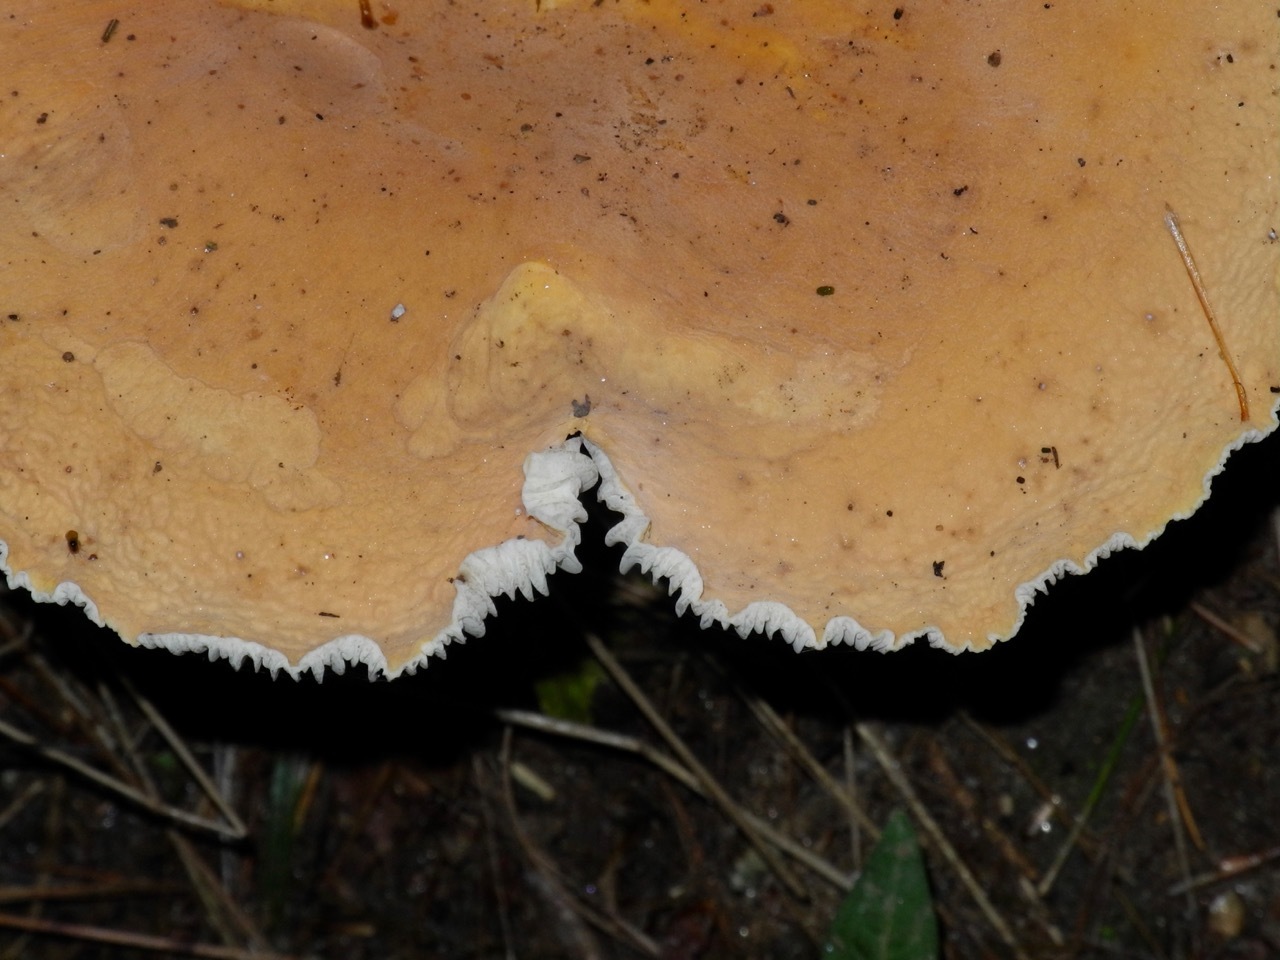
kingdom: Fungi
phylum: Basidiomycota
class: Agaricomycetes
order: Russulales
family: Russulaceae
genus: Lactarius
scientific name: Lactarius hygrophoroides
